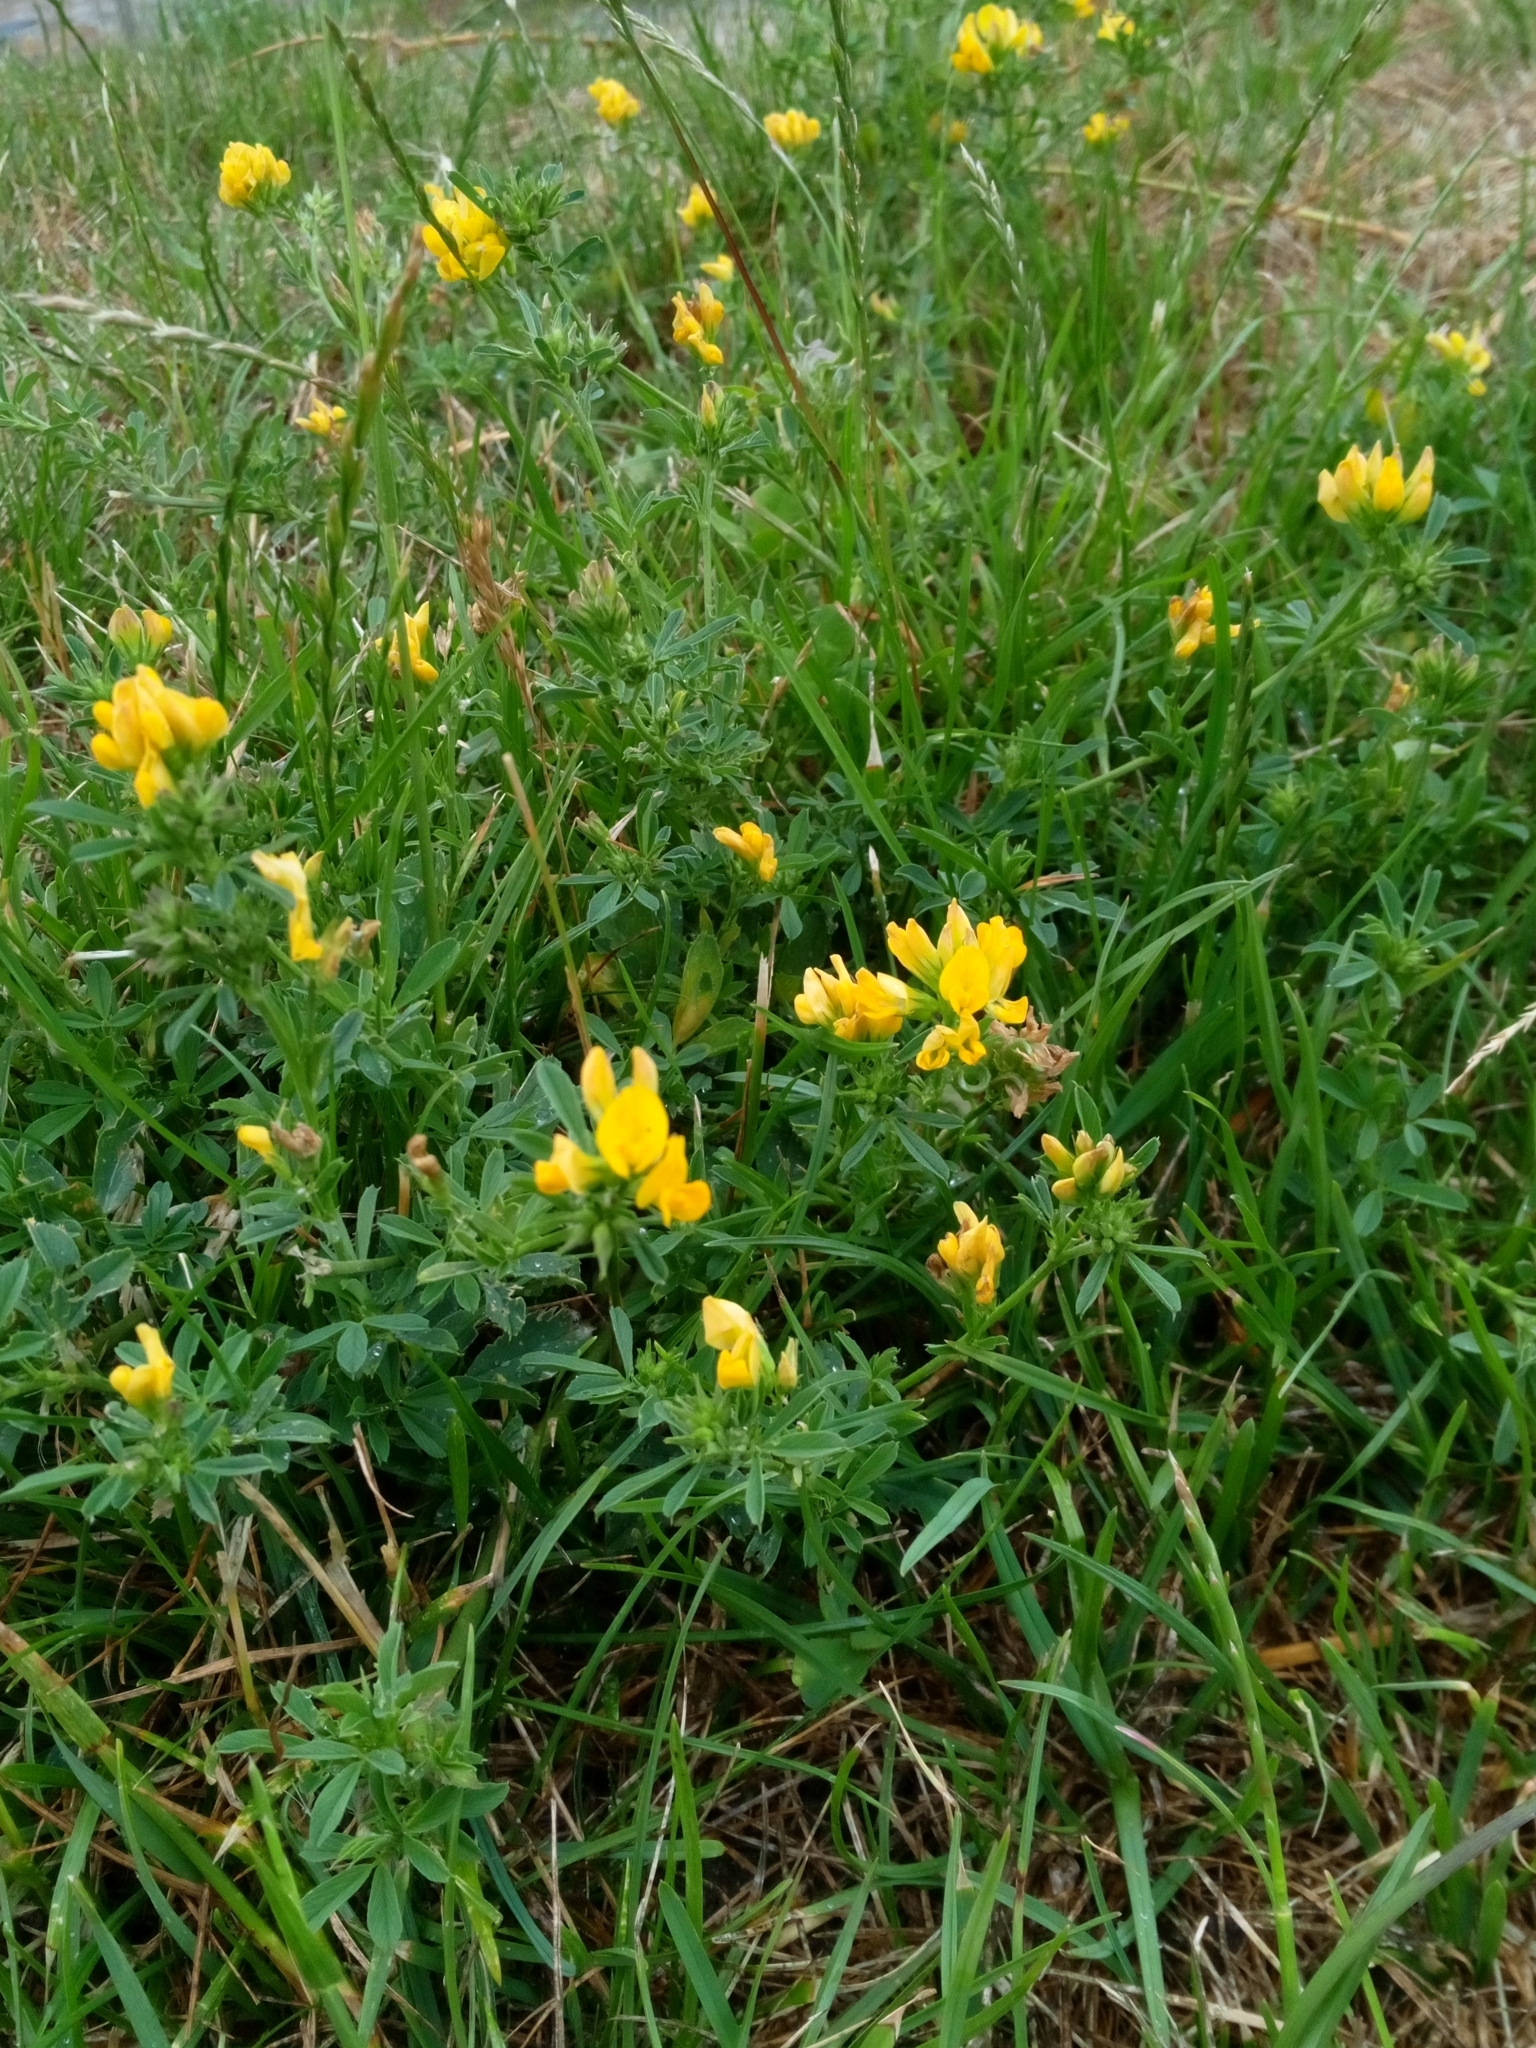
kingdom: Plantae
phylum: Tracheophyta
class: Magnoliopsida
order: Fabales
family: Fabaceae
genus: Medicago
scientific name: Medicago falcata
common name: Sickle medick
